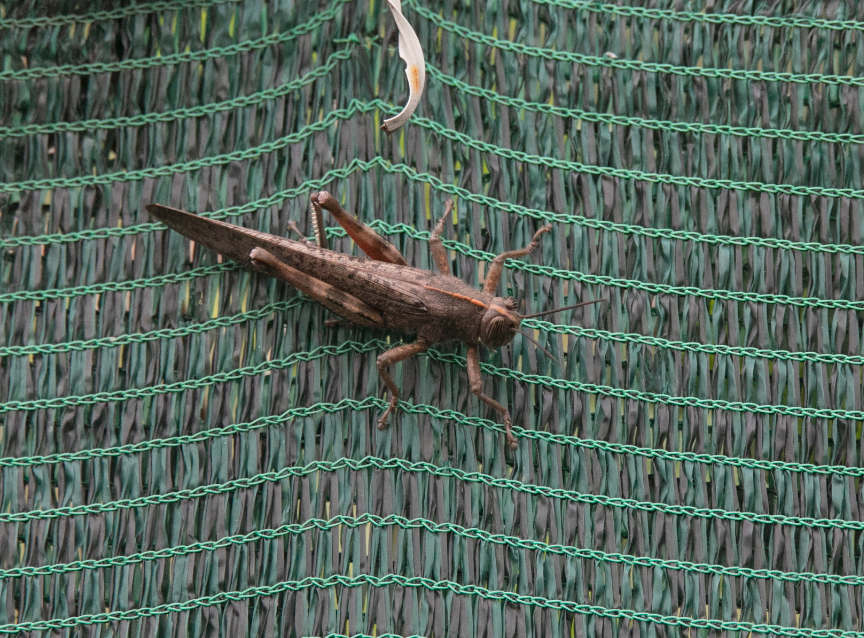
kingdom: Animalia
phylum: Arthropoda
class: Insecta
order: Orthoptera
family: Acrididae
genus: Anacridium
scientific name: Anacridium aegyptium
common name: Egyptian grasshopper
